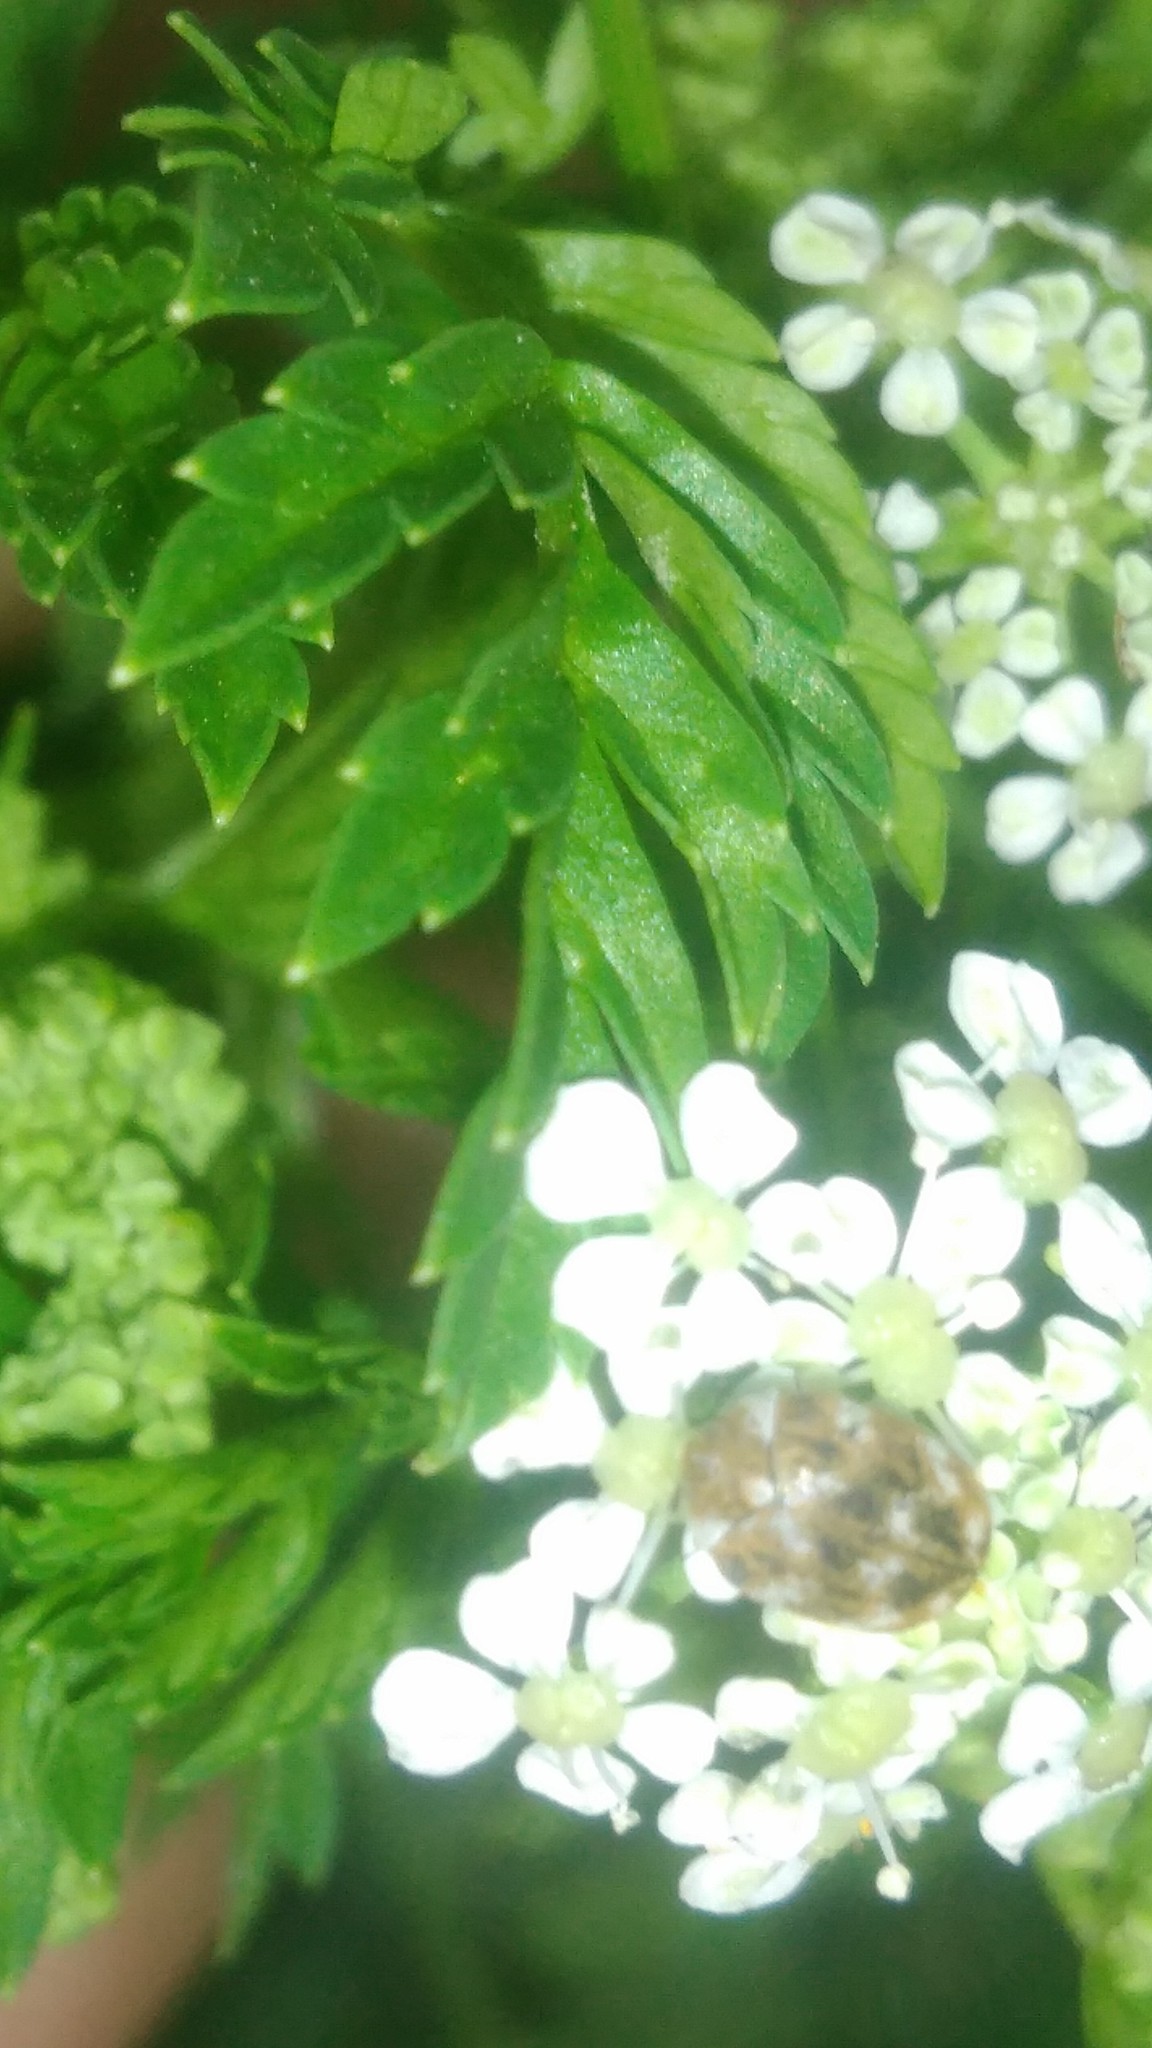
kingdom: Animalia
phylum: Arthropoda
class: Insecta
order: Coleoptera
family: Dermestidae
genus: Anthrenus
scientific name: Anthrenus verbasci
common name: Varied carpet beetle
